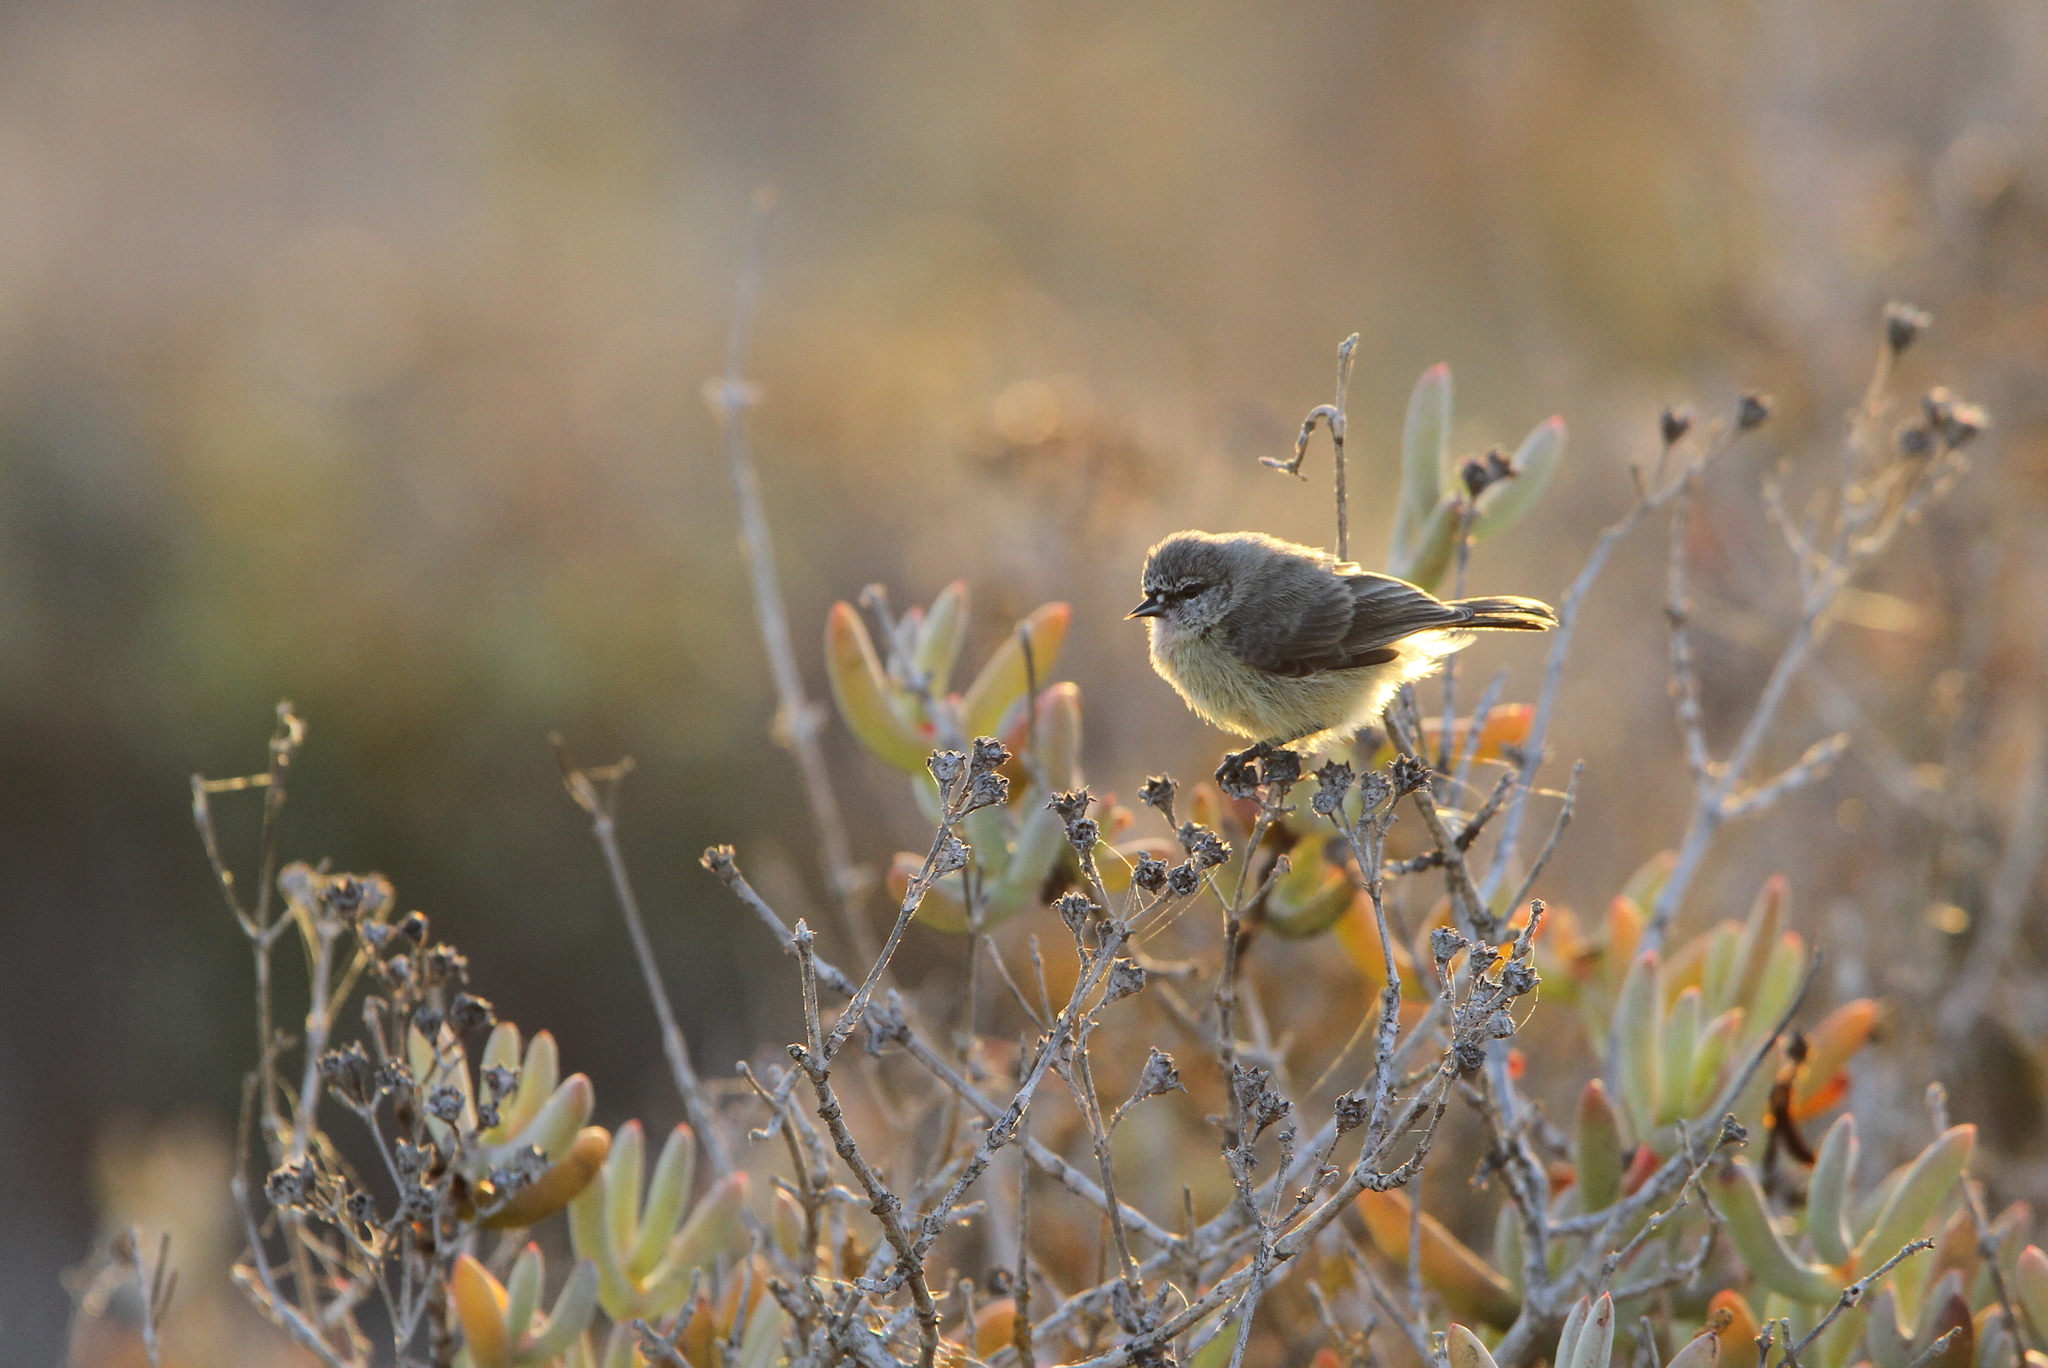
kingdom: Animalia
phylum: Chordata
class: Aves
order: Passeriformes
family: Remizidae
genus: Anthoscopus
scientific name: Anthoscopus minutus
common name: Cape penduline tit
